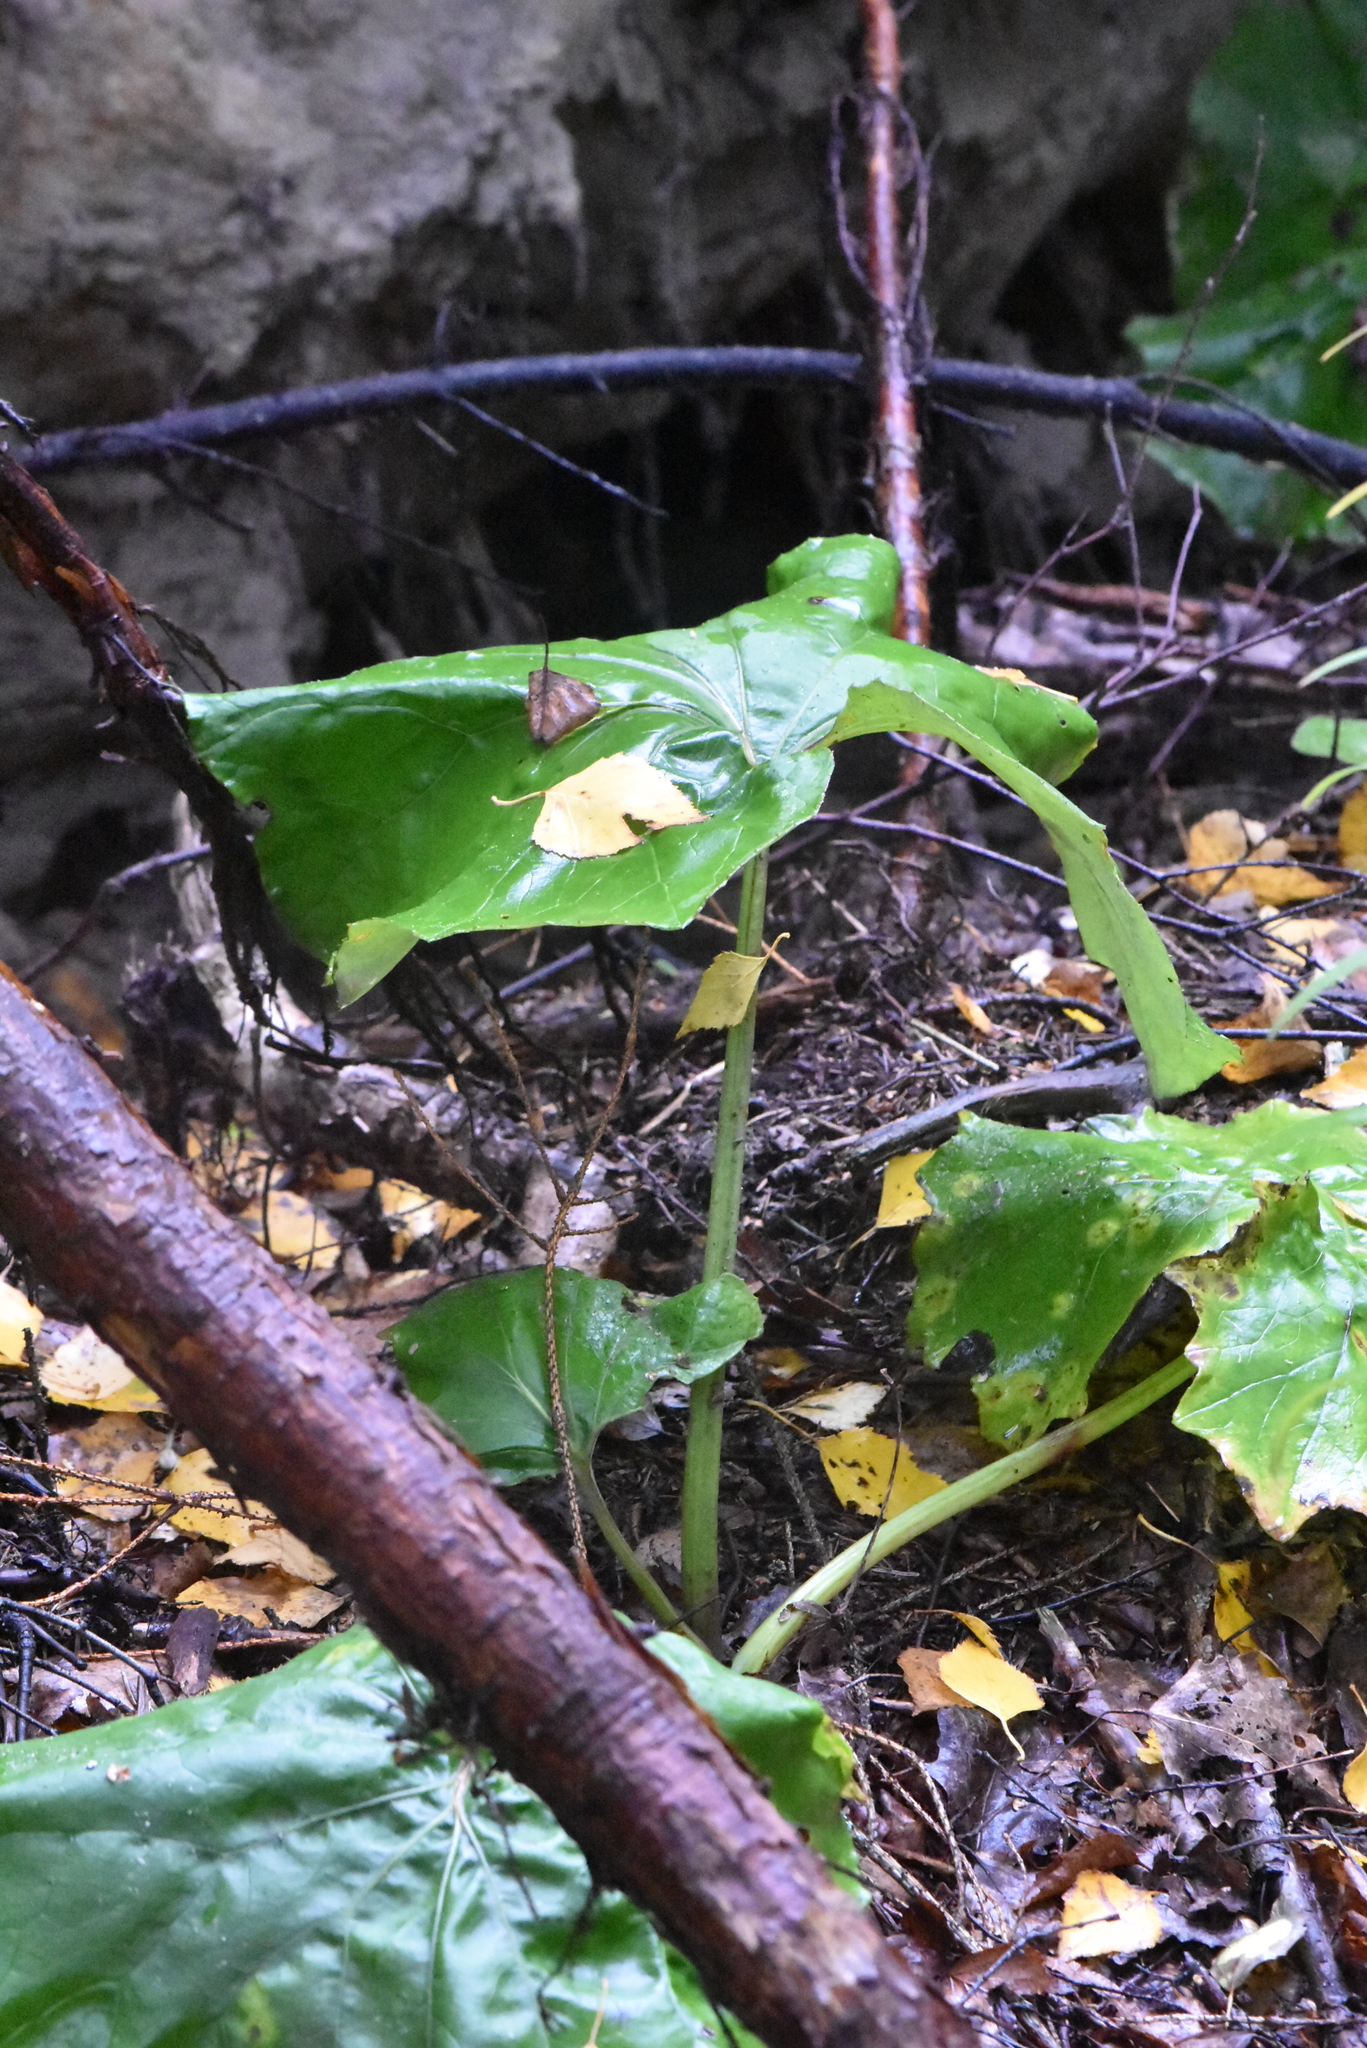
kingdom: Plantae
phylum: Tracheophyta
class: Magnoliopsida
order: Asterales
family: Asteraceae
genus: Tussilago
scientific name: Tussilago farfara
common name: Coltsfoot
